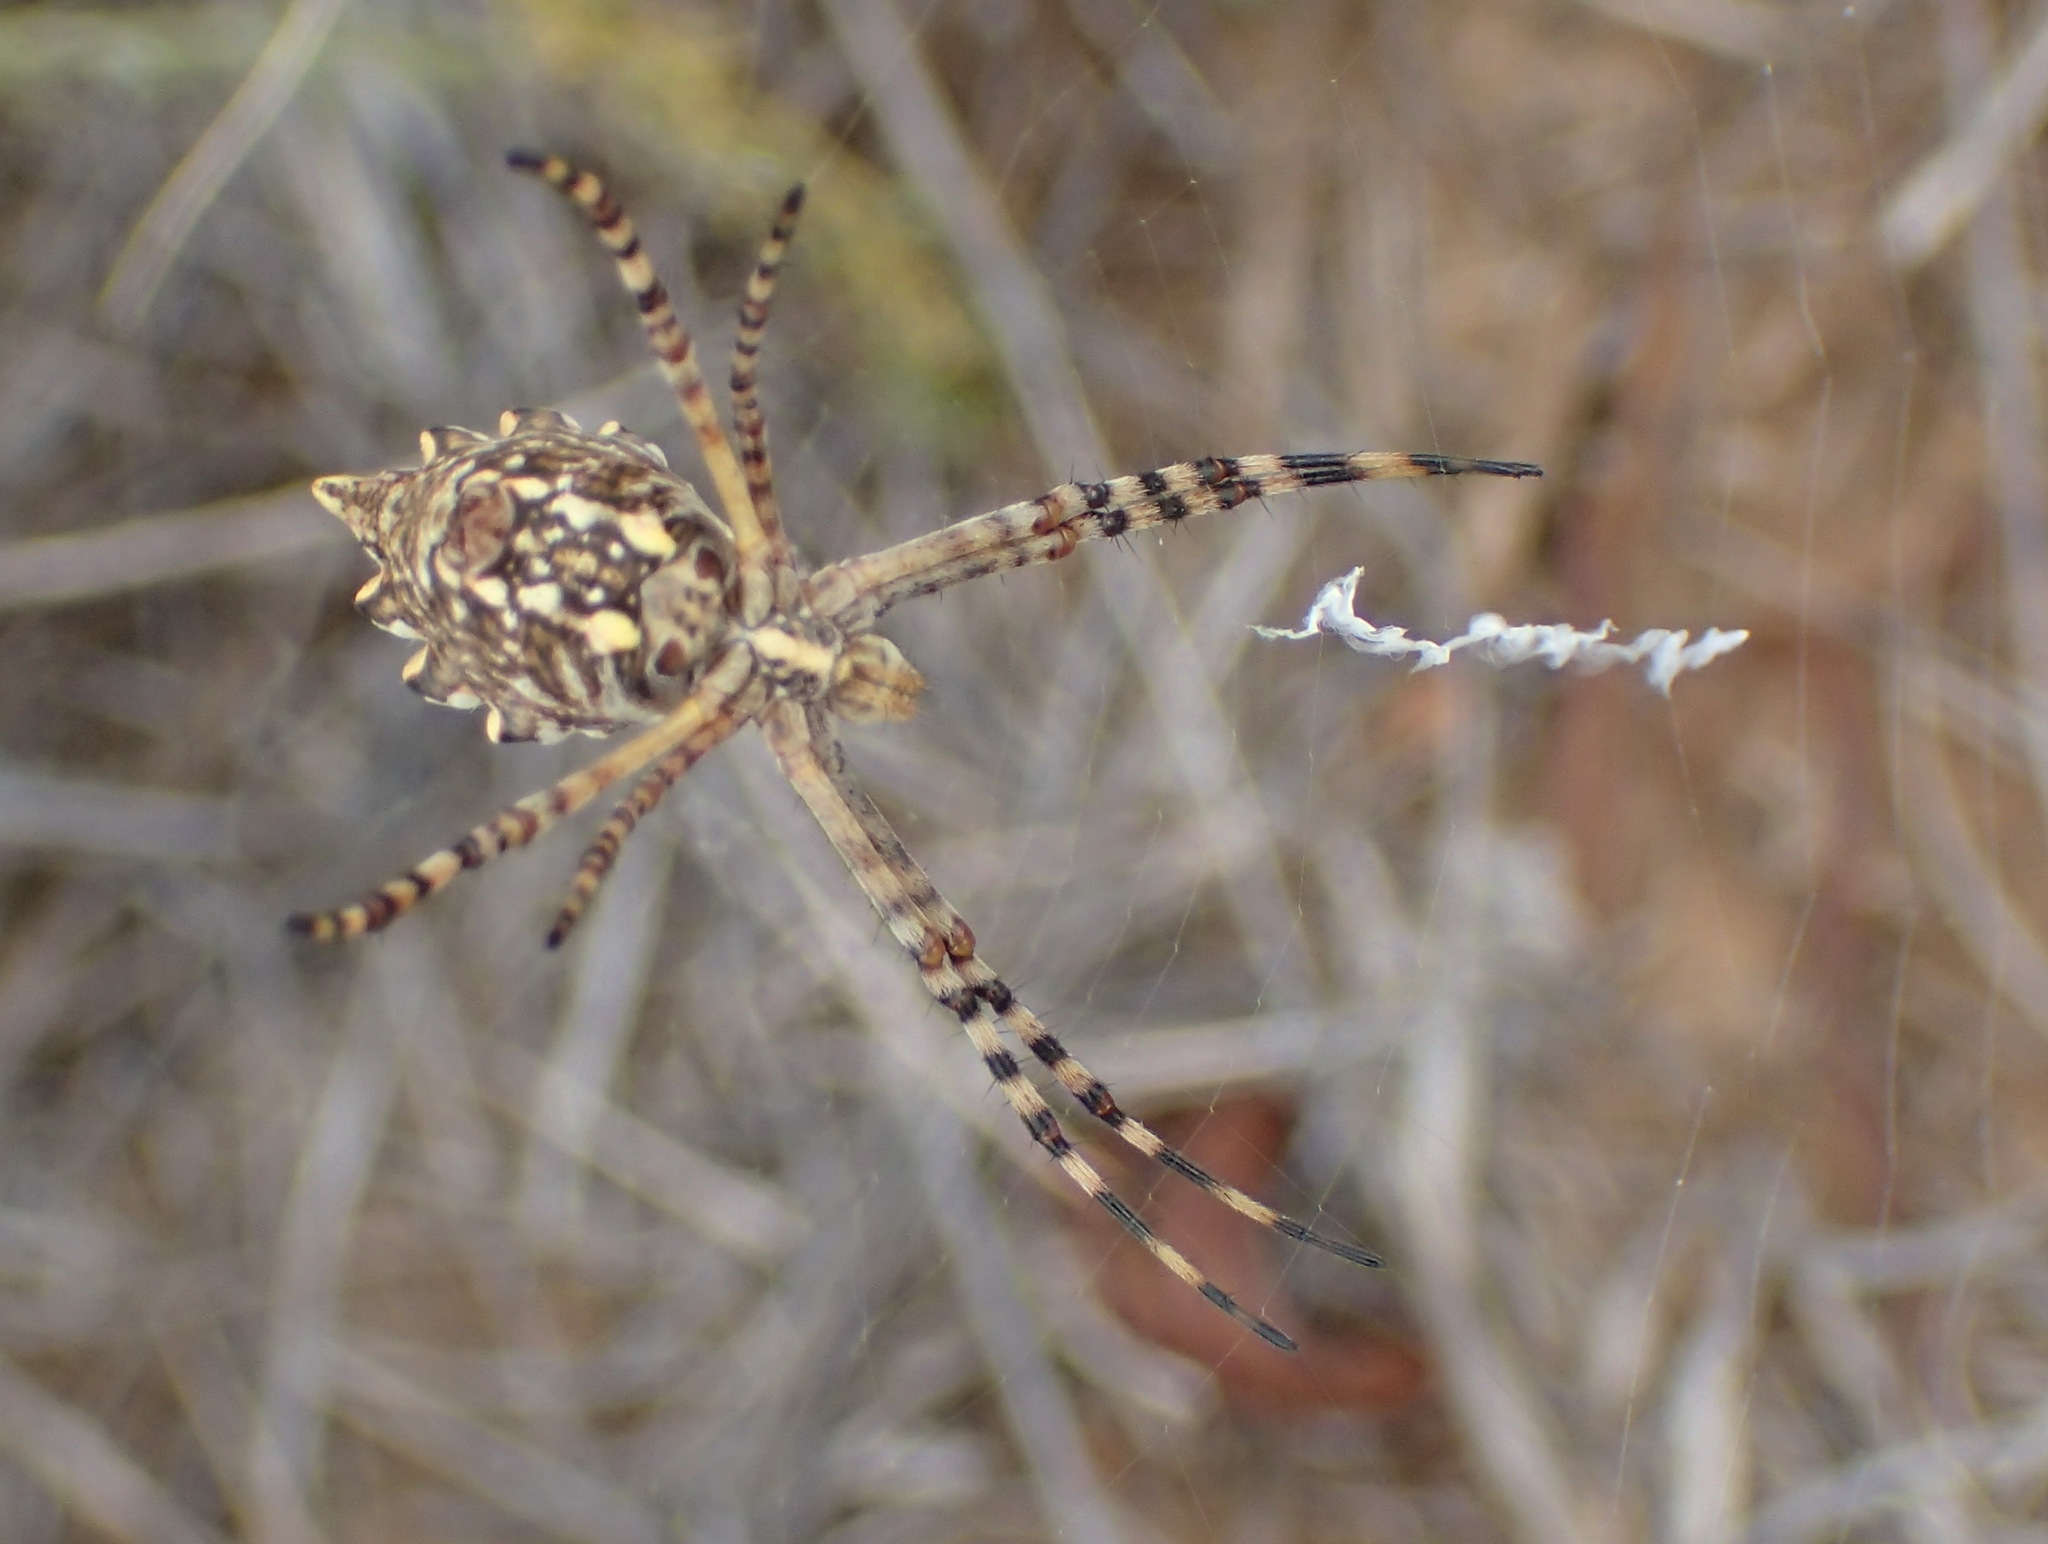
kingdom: Animalia
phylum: Arthropoda
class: Arachnida
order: Araneae
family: Araneidae
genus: Argiope
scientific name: Argiope australis
